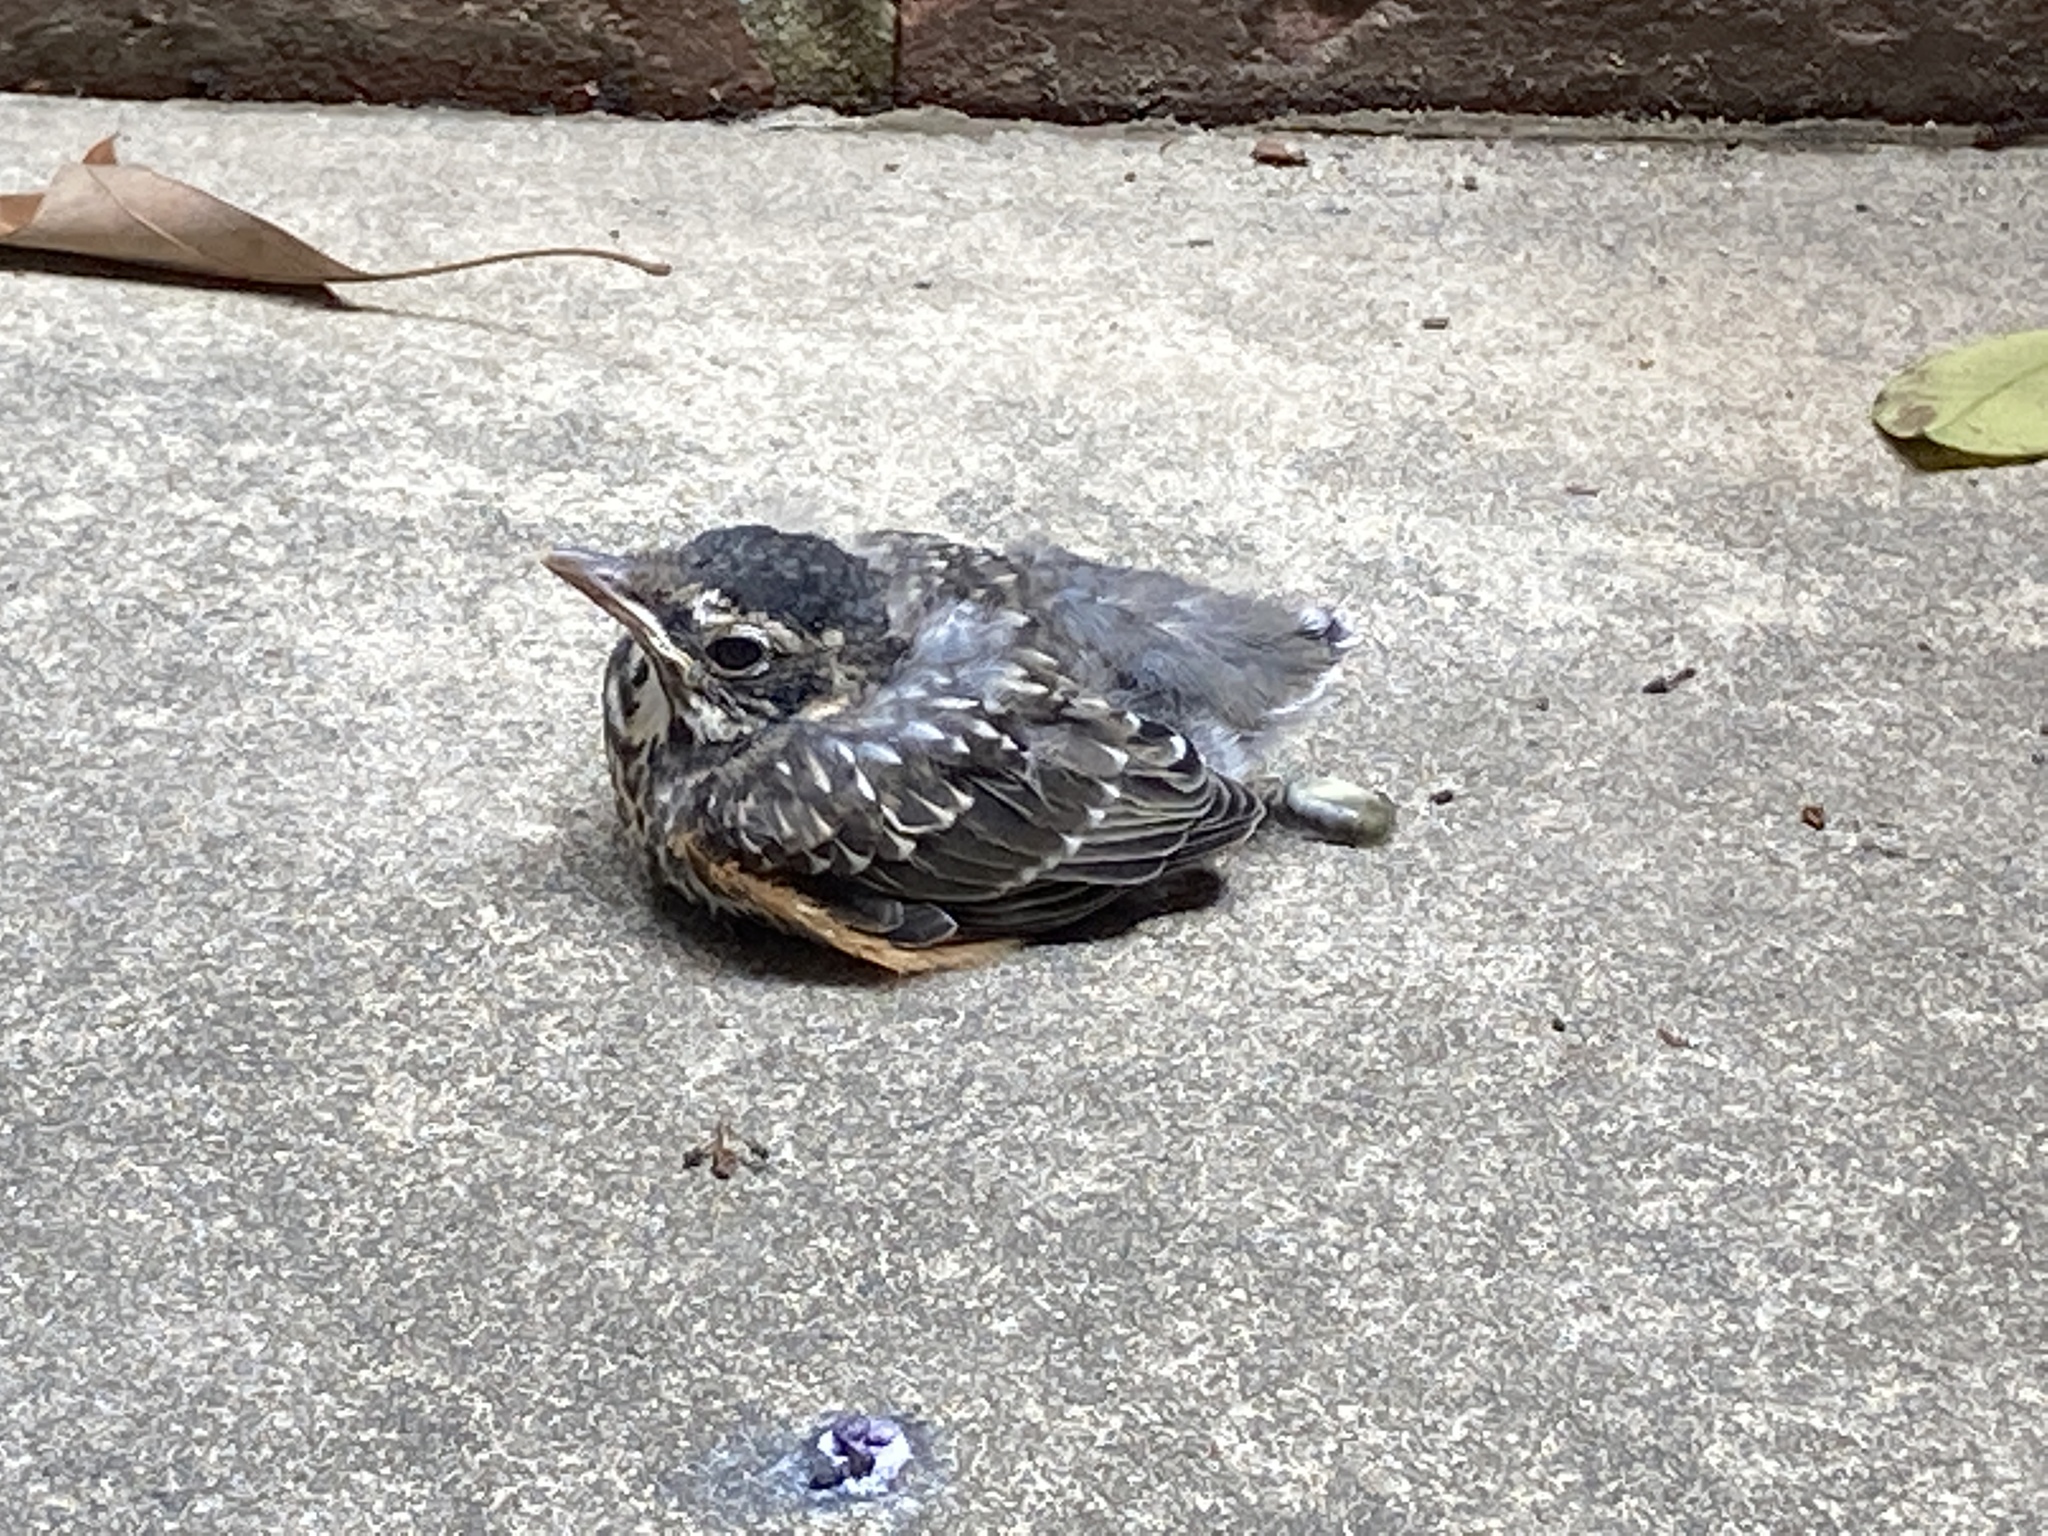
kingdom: Animalia
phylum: Chordata
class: Aves
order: Passeriformes
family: Turdidae
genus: Turdus
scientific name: Turdus migratorius
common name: American robin
